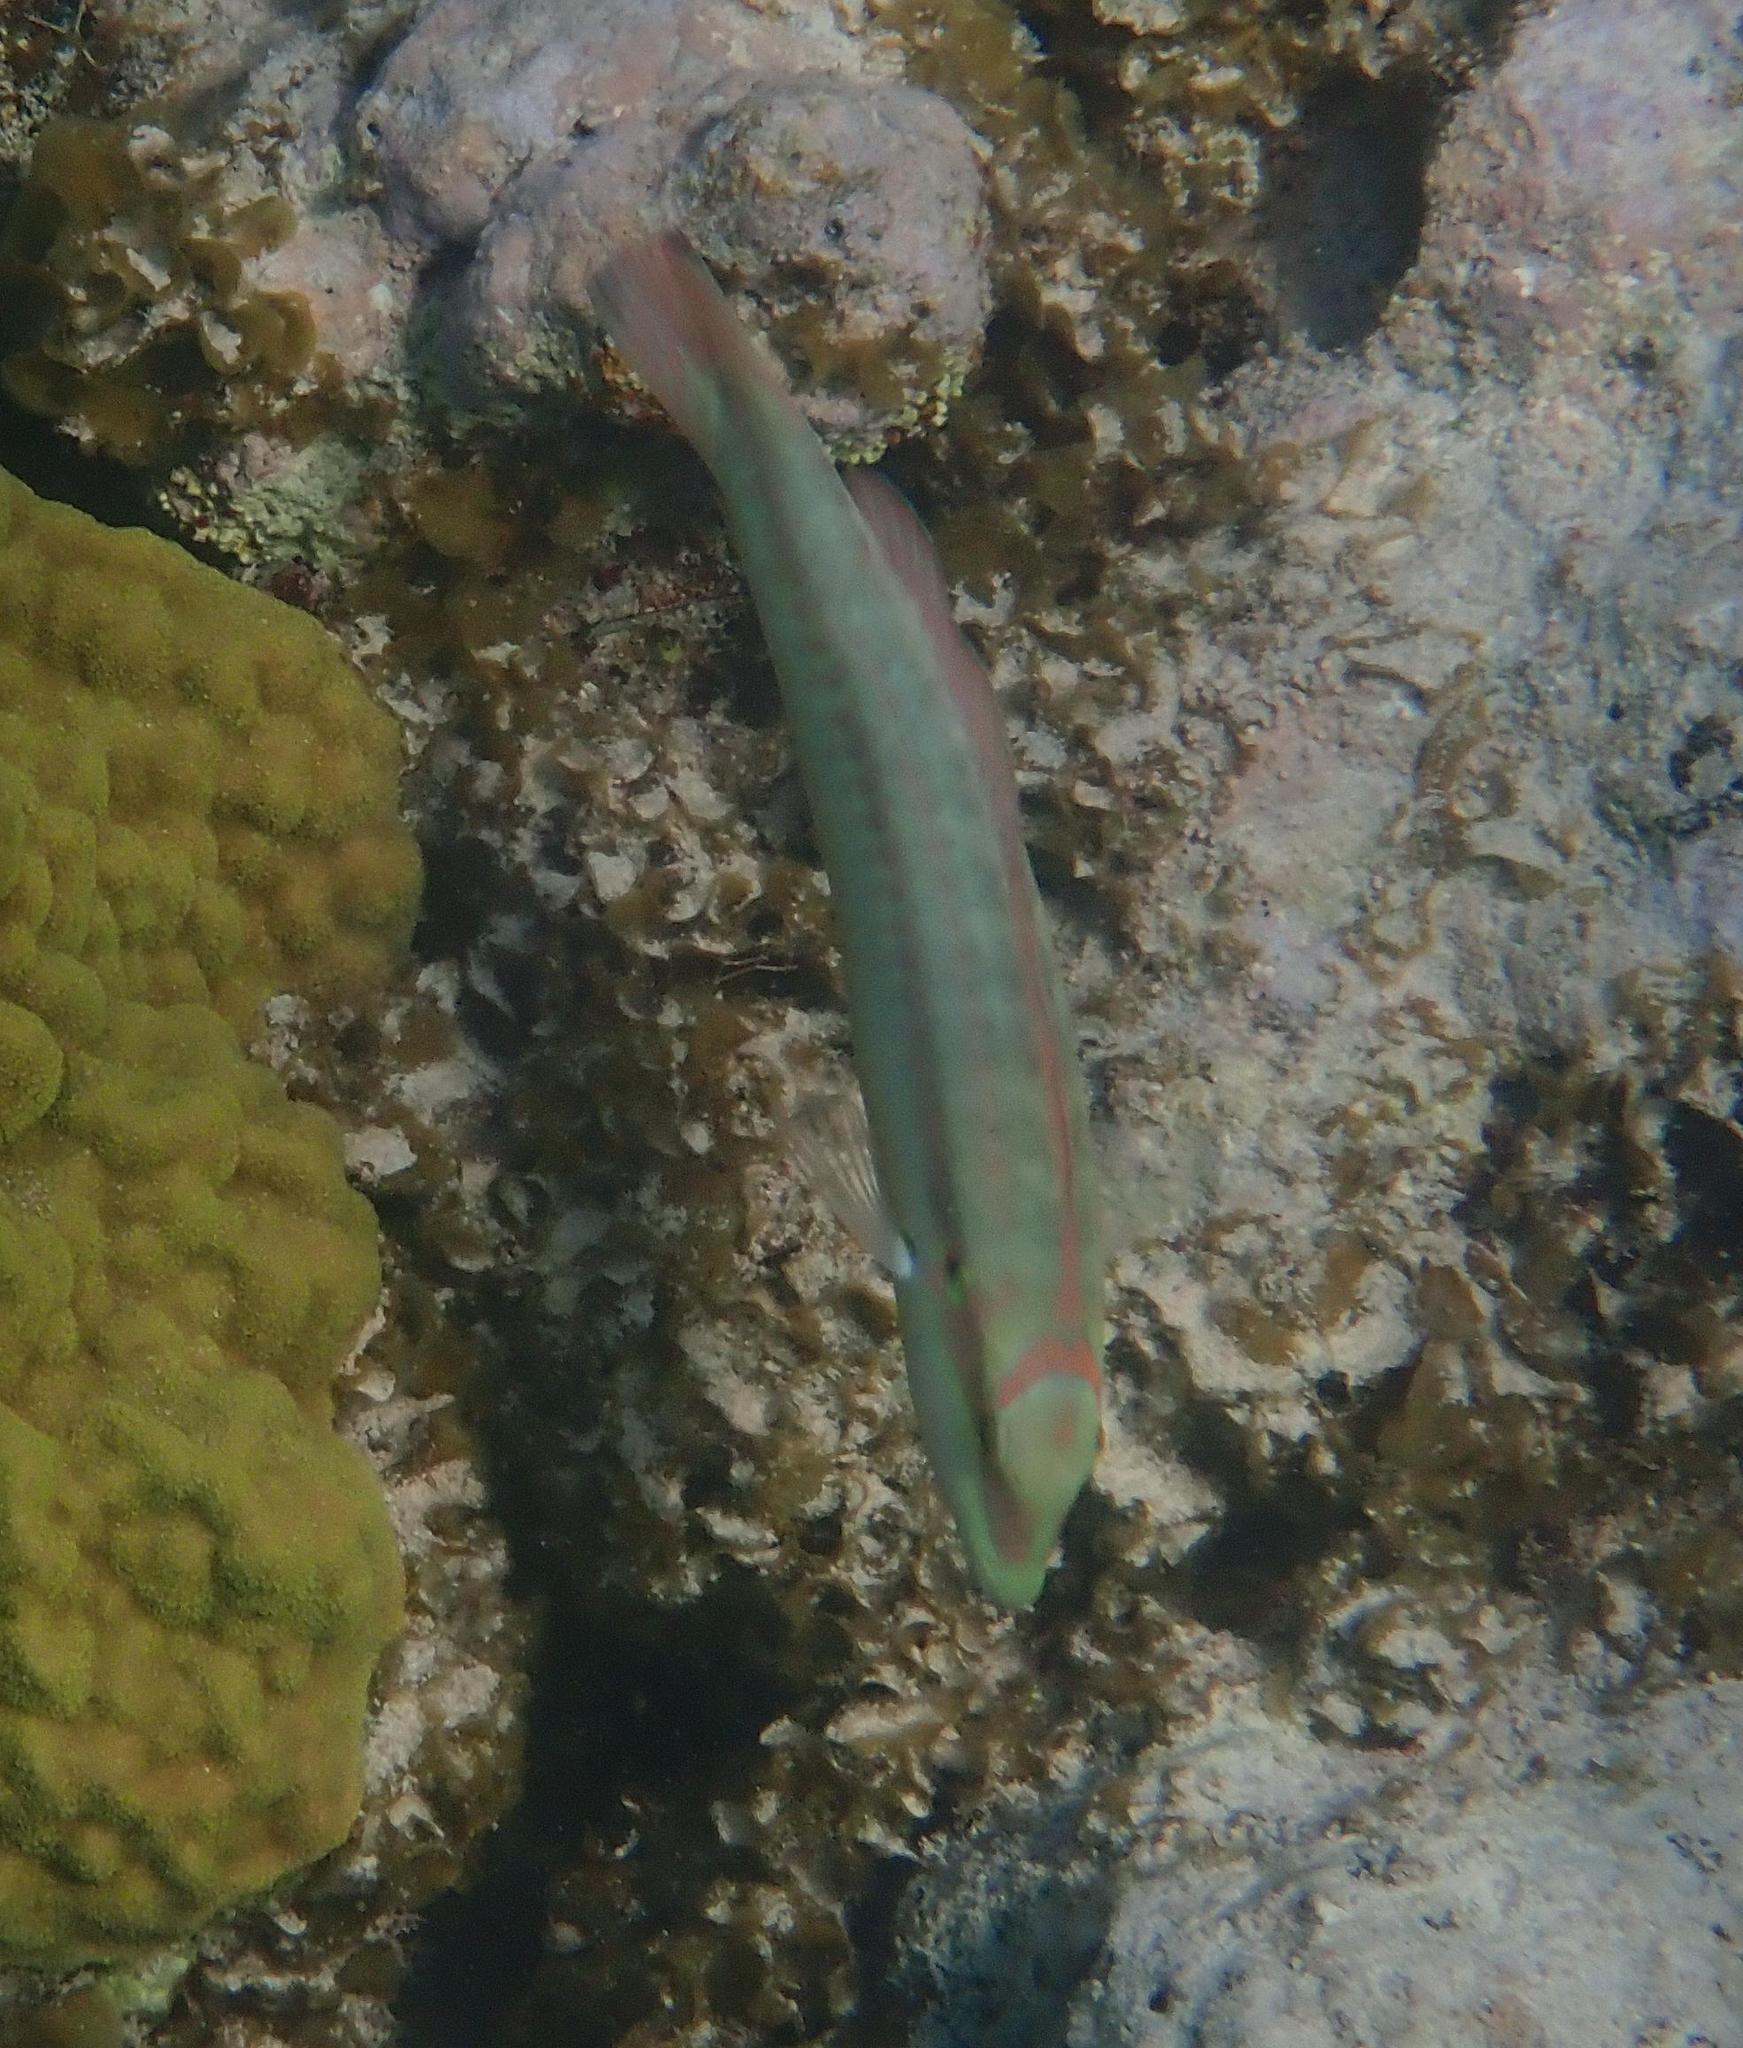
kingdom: Animalia
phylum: Chordata
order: Perciformes
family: Labridae
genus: Halichoeres
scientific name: Halichoeres bivittatus
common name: Slippery dick
